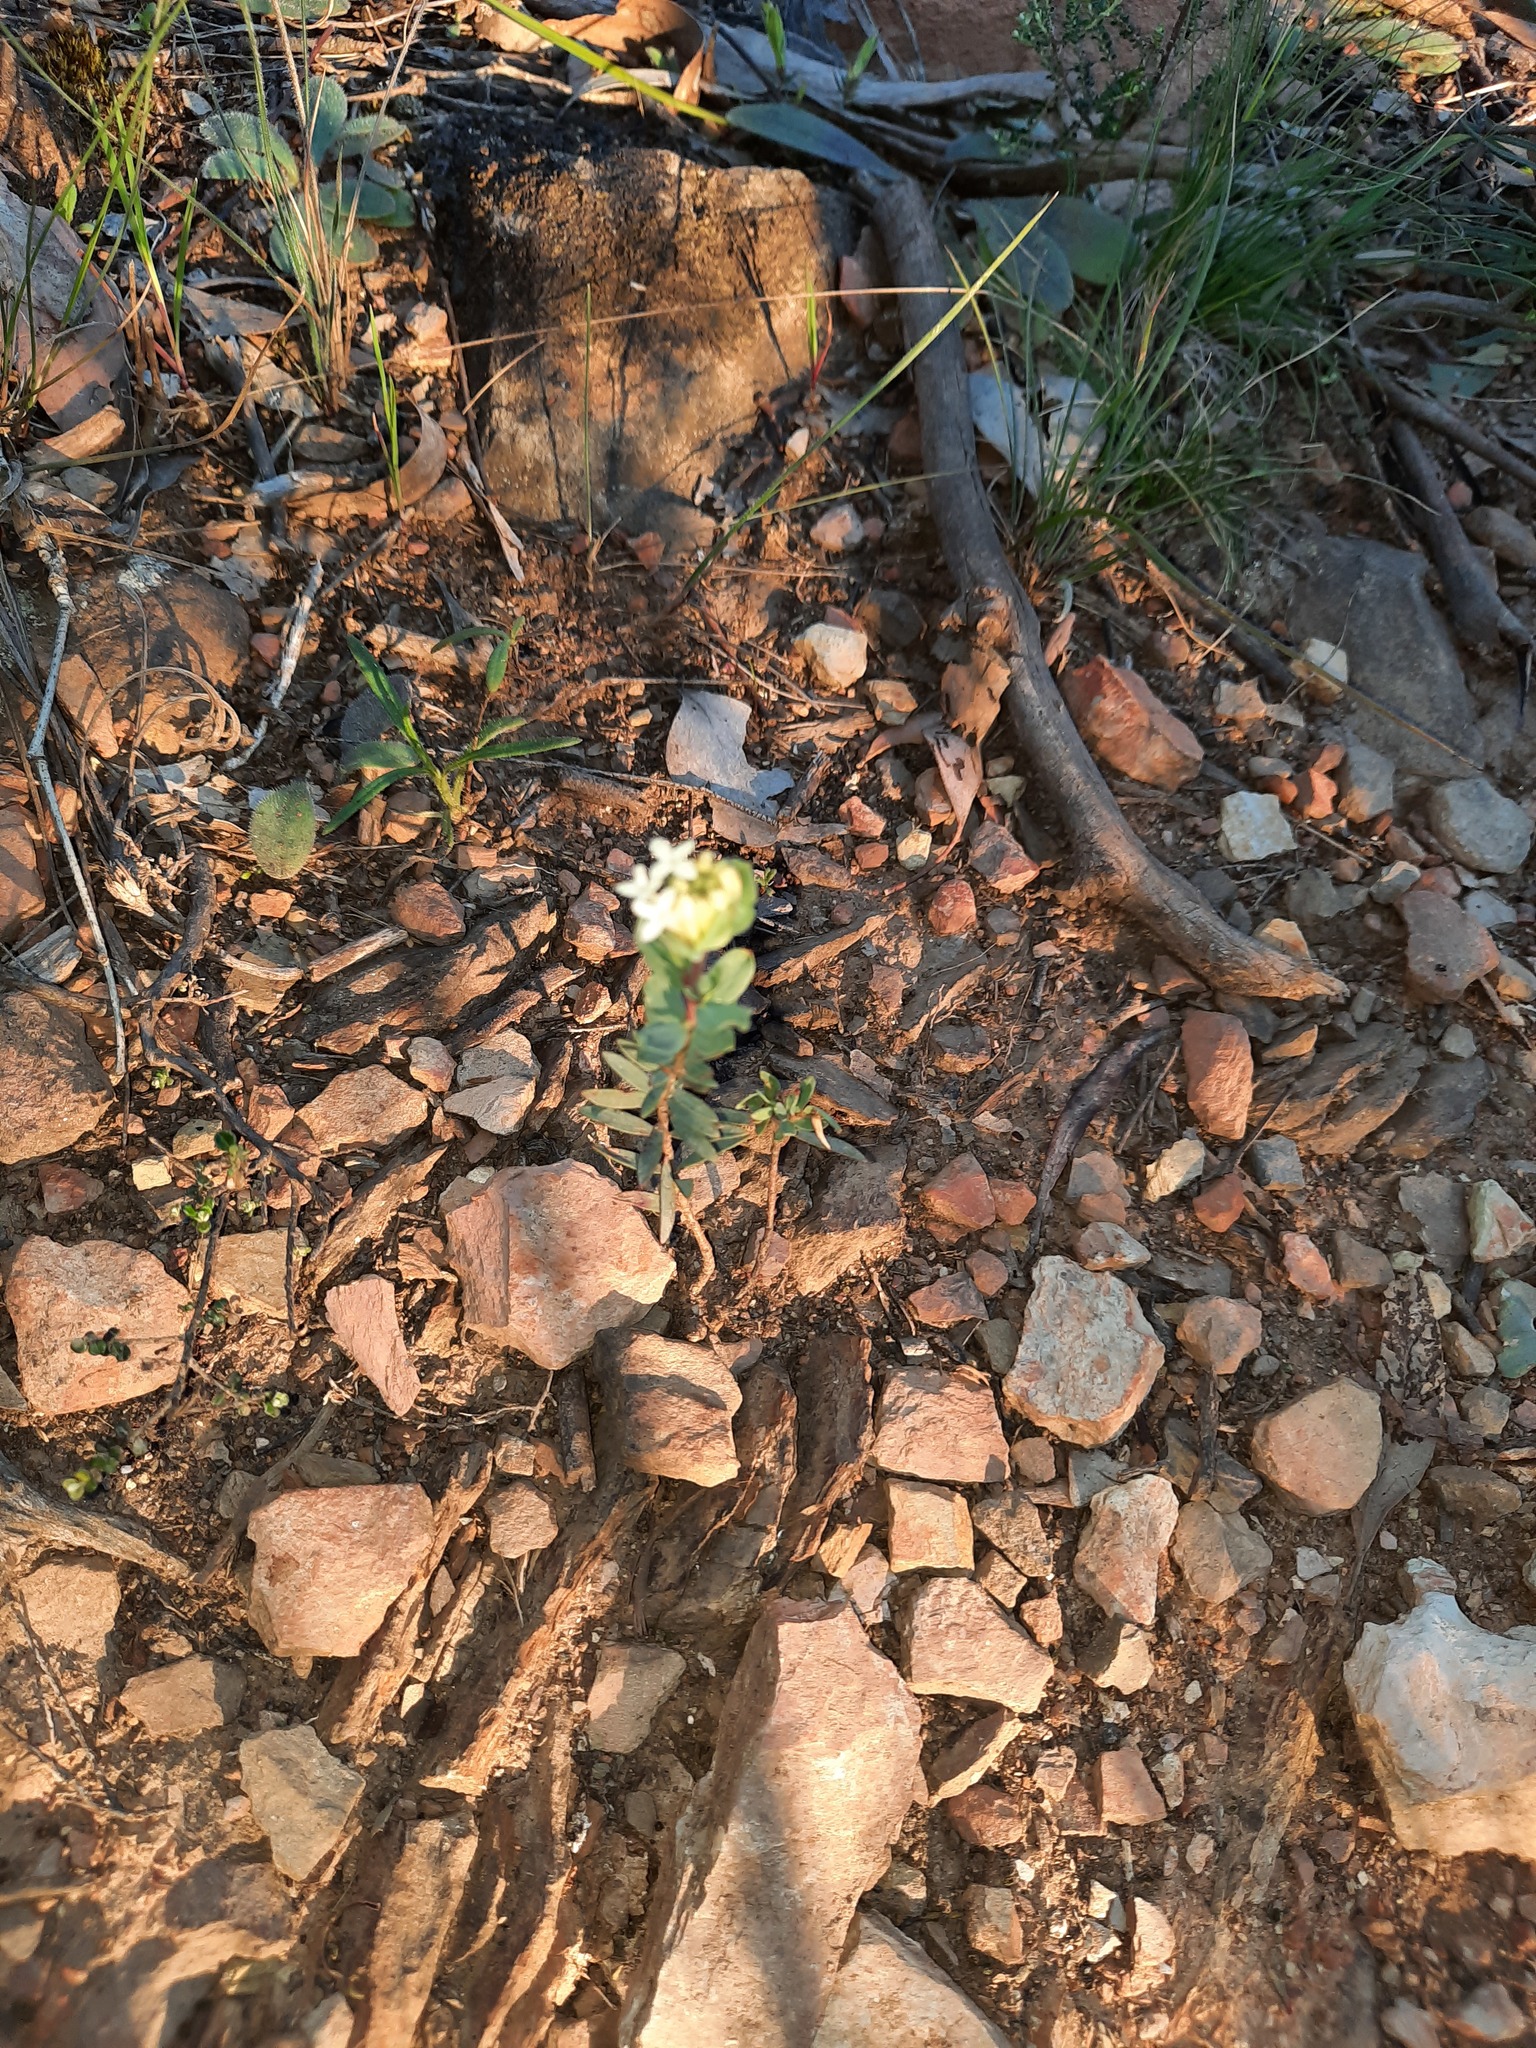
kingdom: Plantae
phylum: Tracheophyta
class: Magnoliopsida
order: Malvales
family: Thymelaeaceae
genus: Pimelea
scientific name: Pimelea humilis
